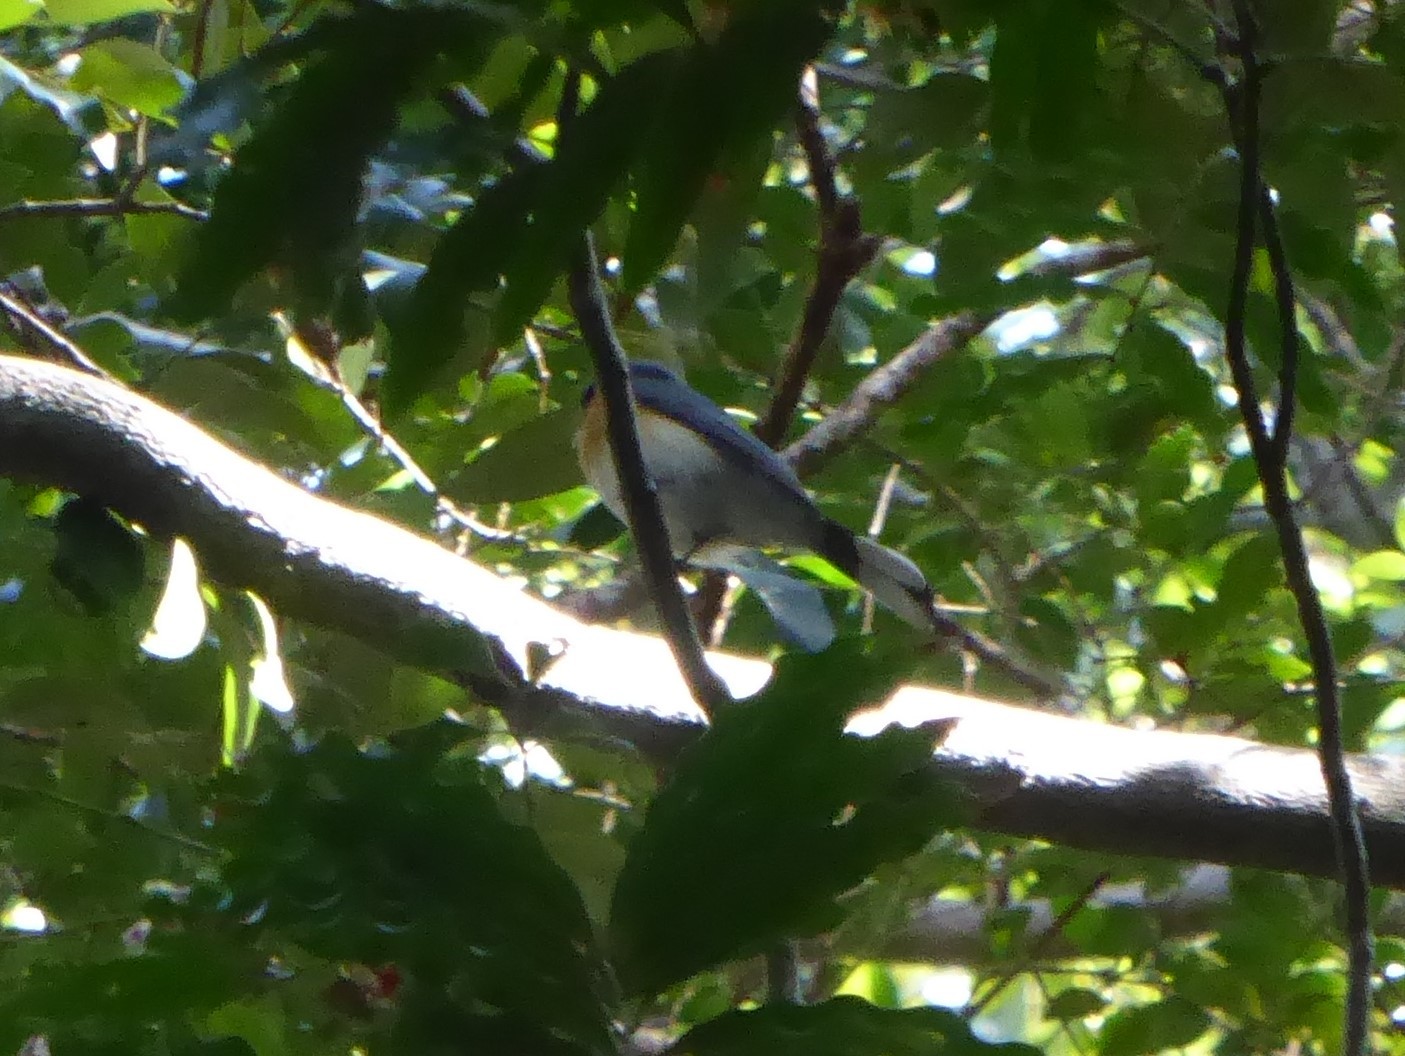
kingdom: Animalia
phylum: Chordata
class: Aves
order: Passeriformes
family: Monarchidae
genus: Symposiachrus
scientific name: Symposiachrus trivirgatus
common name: Spectacled monarch
